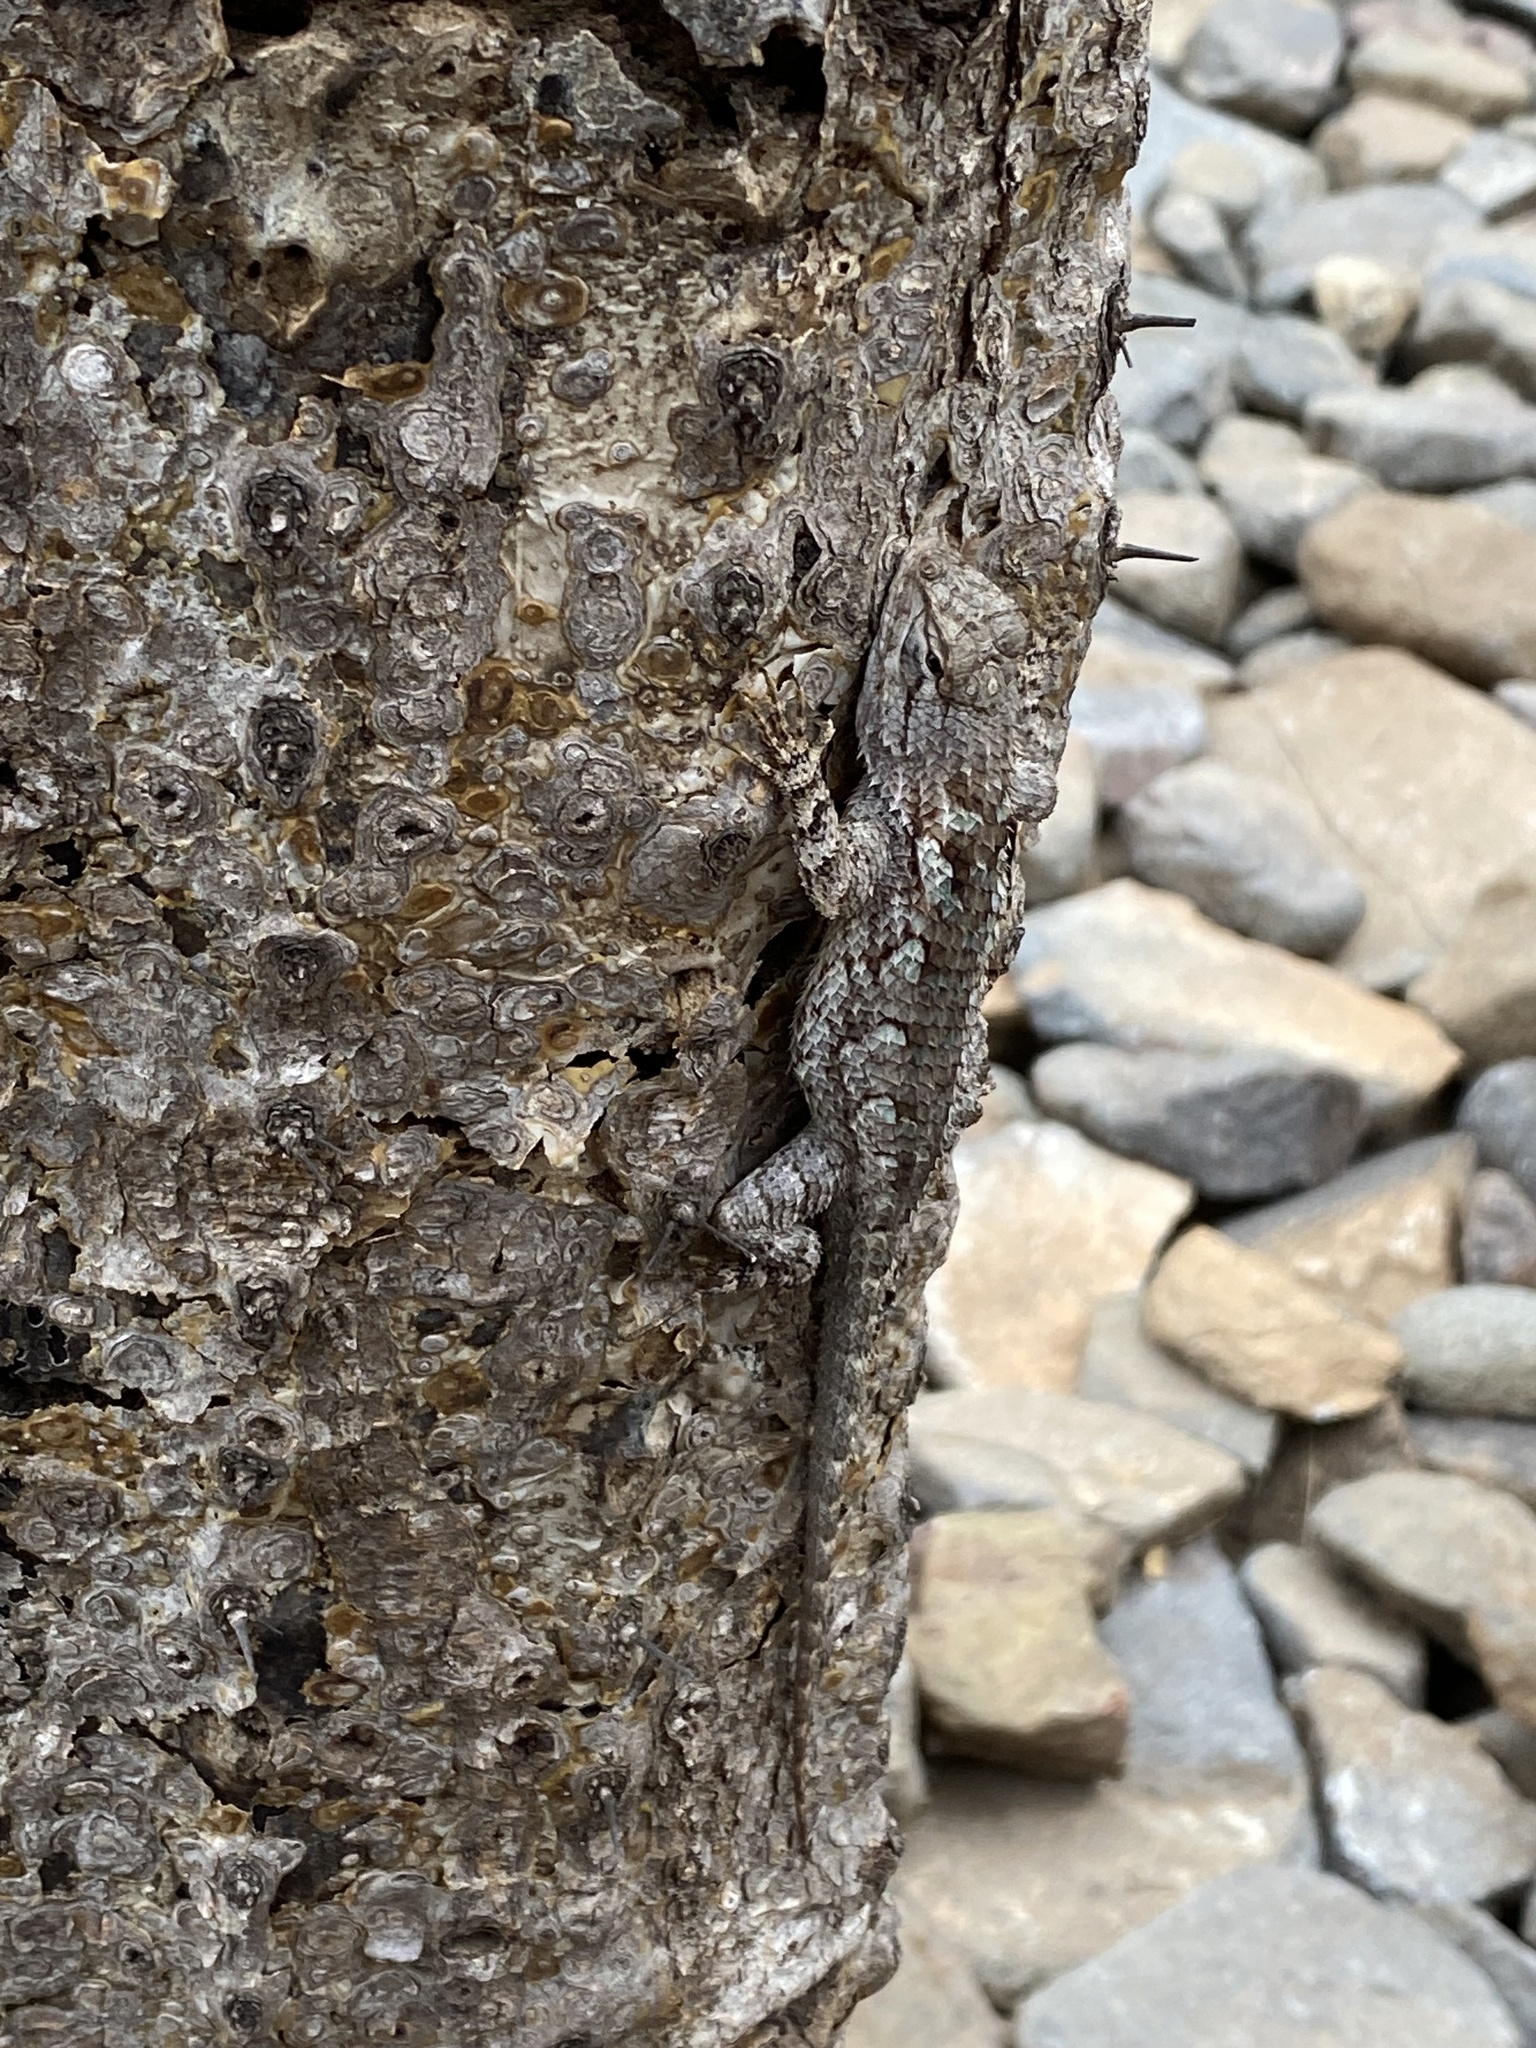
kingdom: Animalia
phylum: Chordata
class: Squamata
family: Phrynosomatidae
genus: Sceloporus
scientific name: Sceloporus clarkii
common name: Clark's spiny lizard
